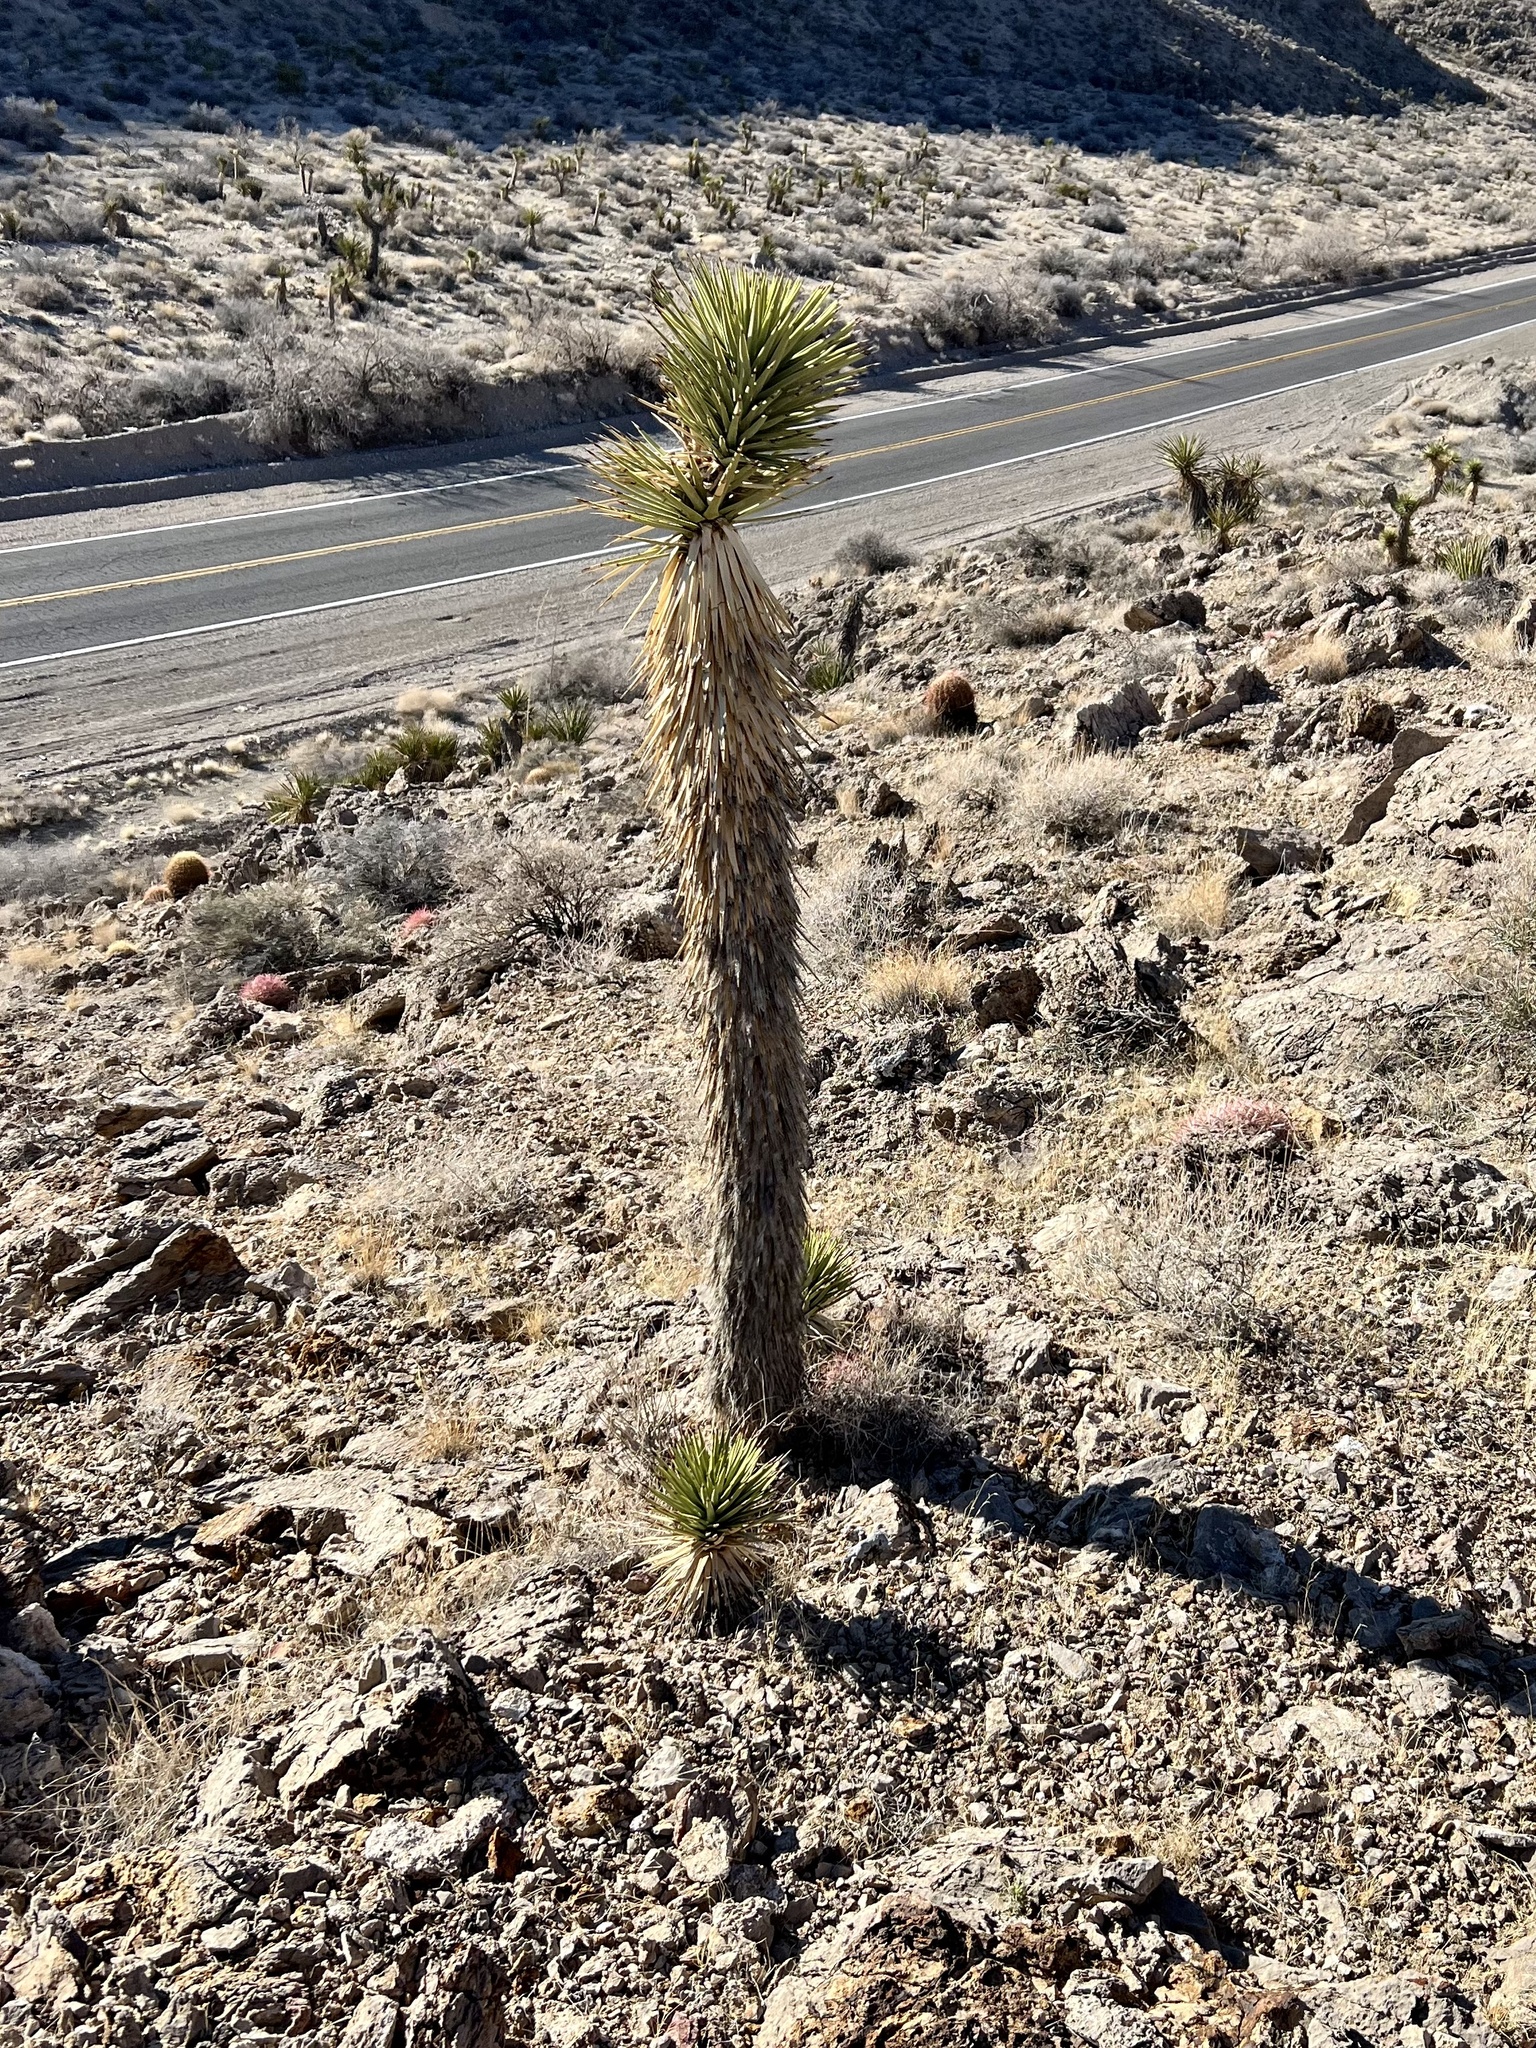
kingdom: Plantae
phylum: Tracheophyta
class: Liliopsida
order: Asparagales
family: Asparagaceae
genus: Yucca
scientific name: Yucca brevifolia
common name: Joshua tree
